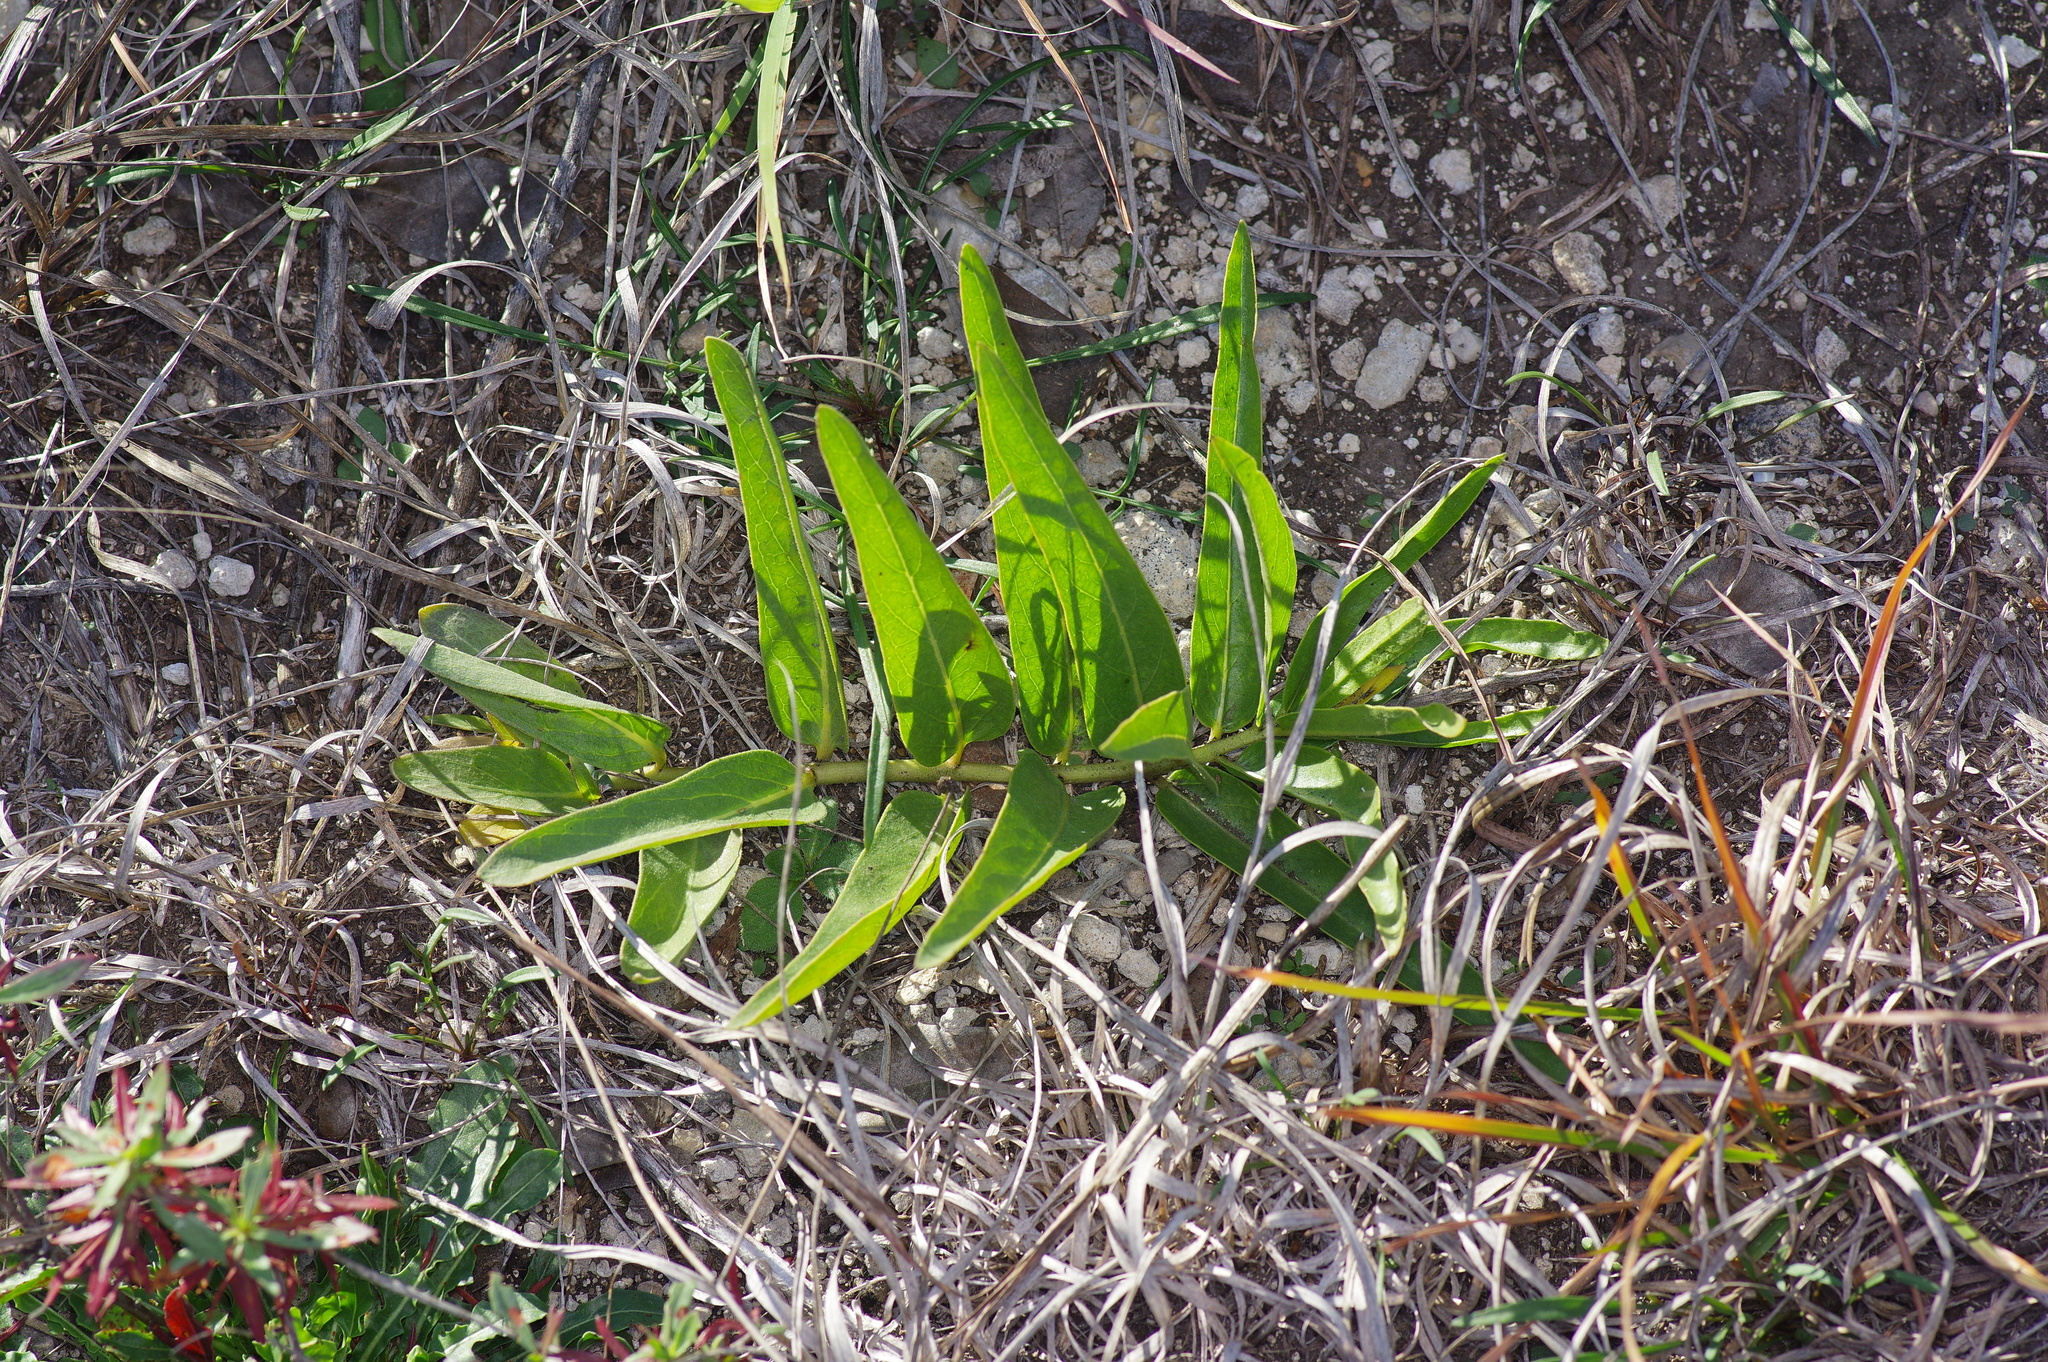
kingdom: Plantae
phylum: Tracheophyta
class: Magnoliopsida
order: Gentianales
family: Apocynaceae
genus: Asclepias
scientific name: Asclepias asperula
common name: Antelope horns
